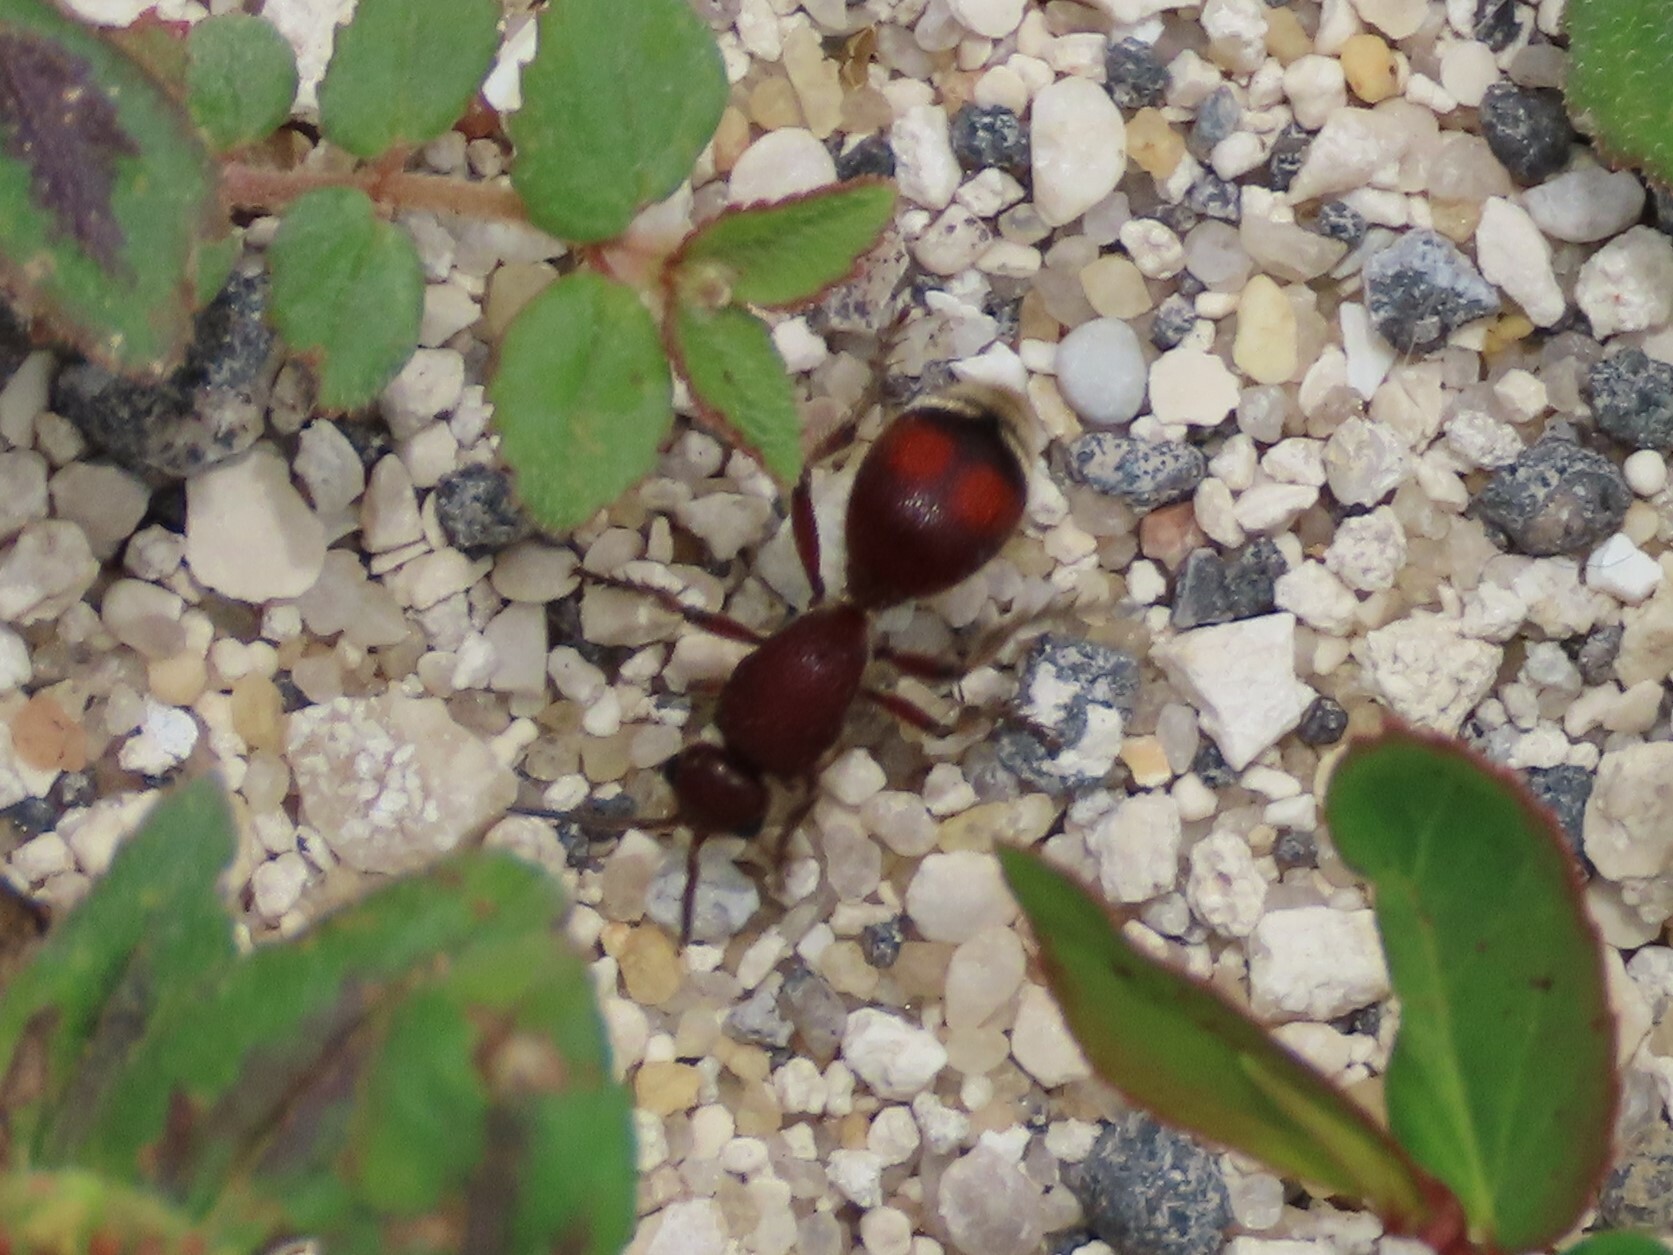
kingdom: Animalia
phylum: Arthropoda
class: Insecta
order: Hymenoptera
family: Mutillidae
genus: Dasymutilla
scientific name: Dasymutilla
